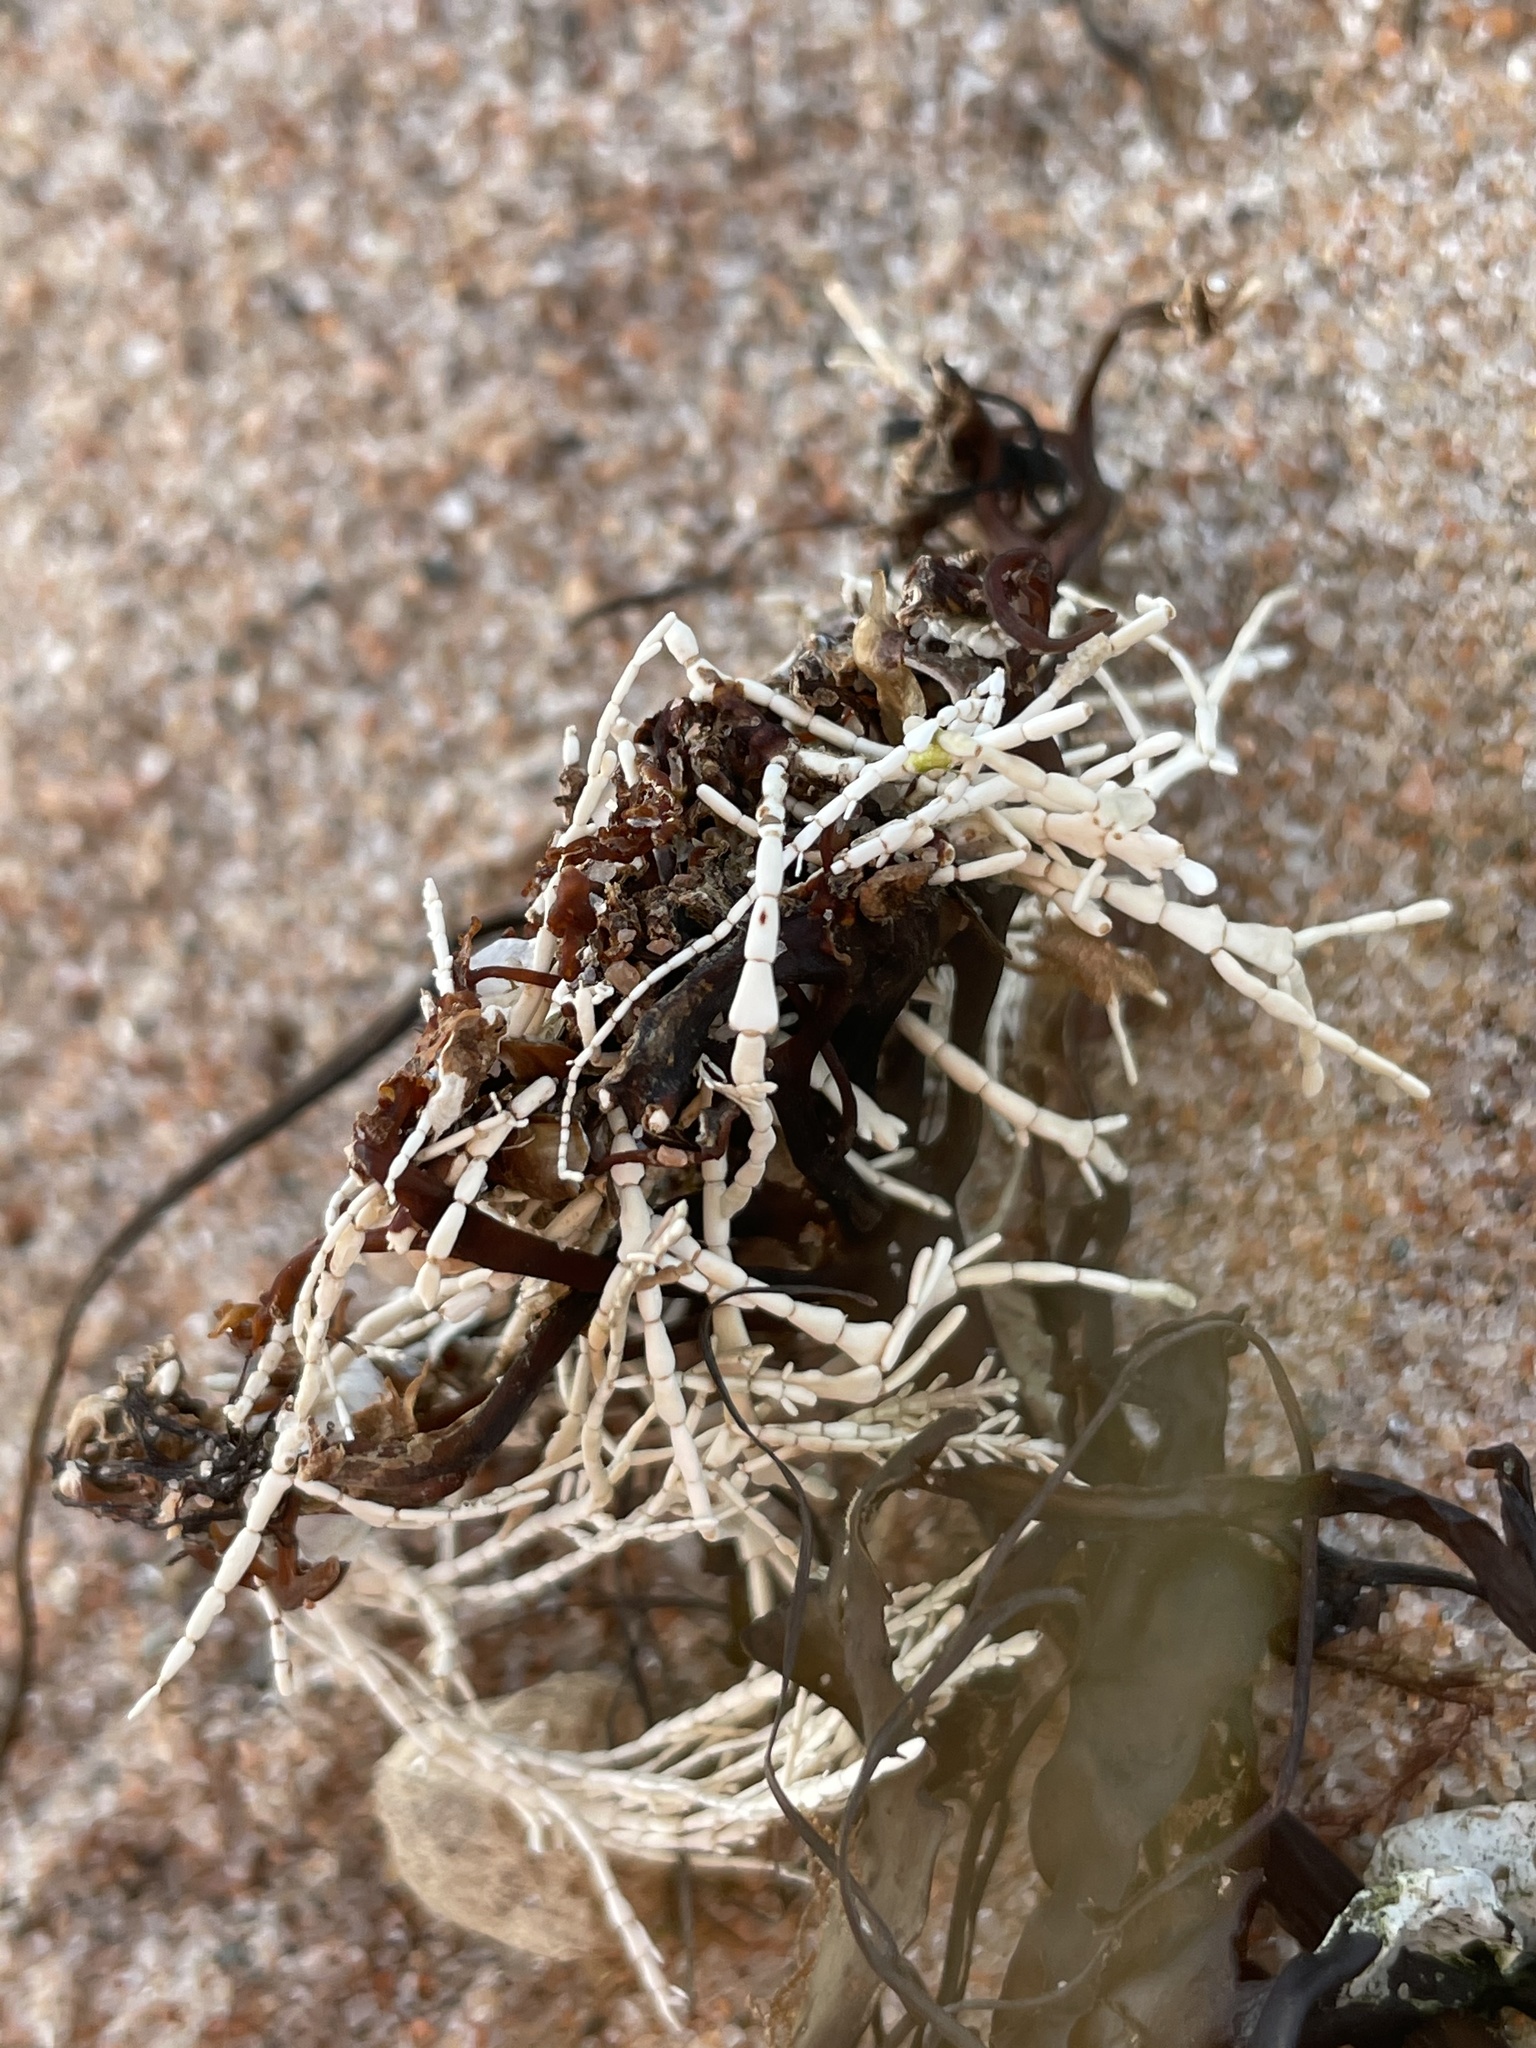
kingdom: Plantae
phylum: Rhodophyta
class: Florideophyceae
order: Corallinales
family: Corallinaceae
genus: Corallina
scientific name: Corallina officinalis
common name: Coral weed
